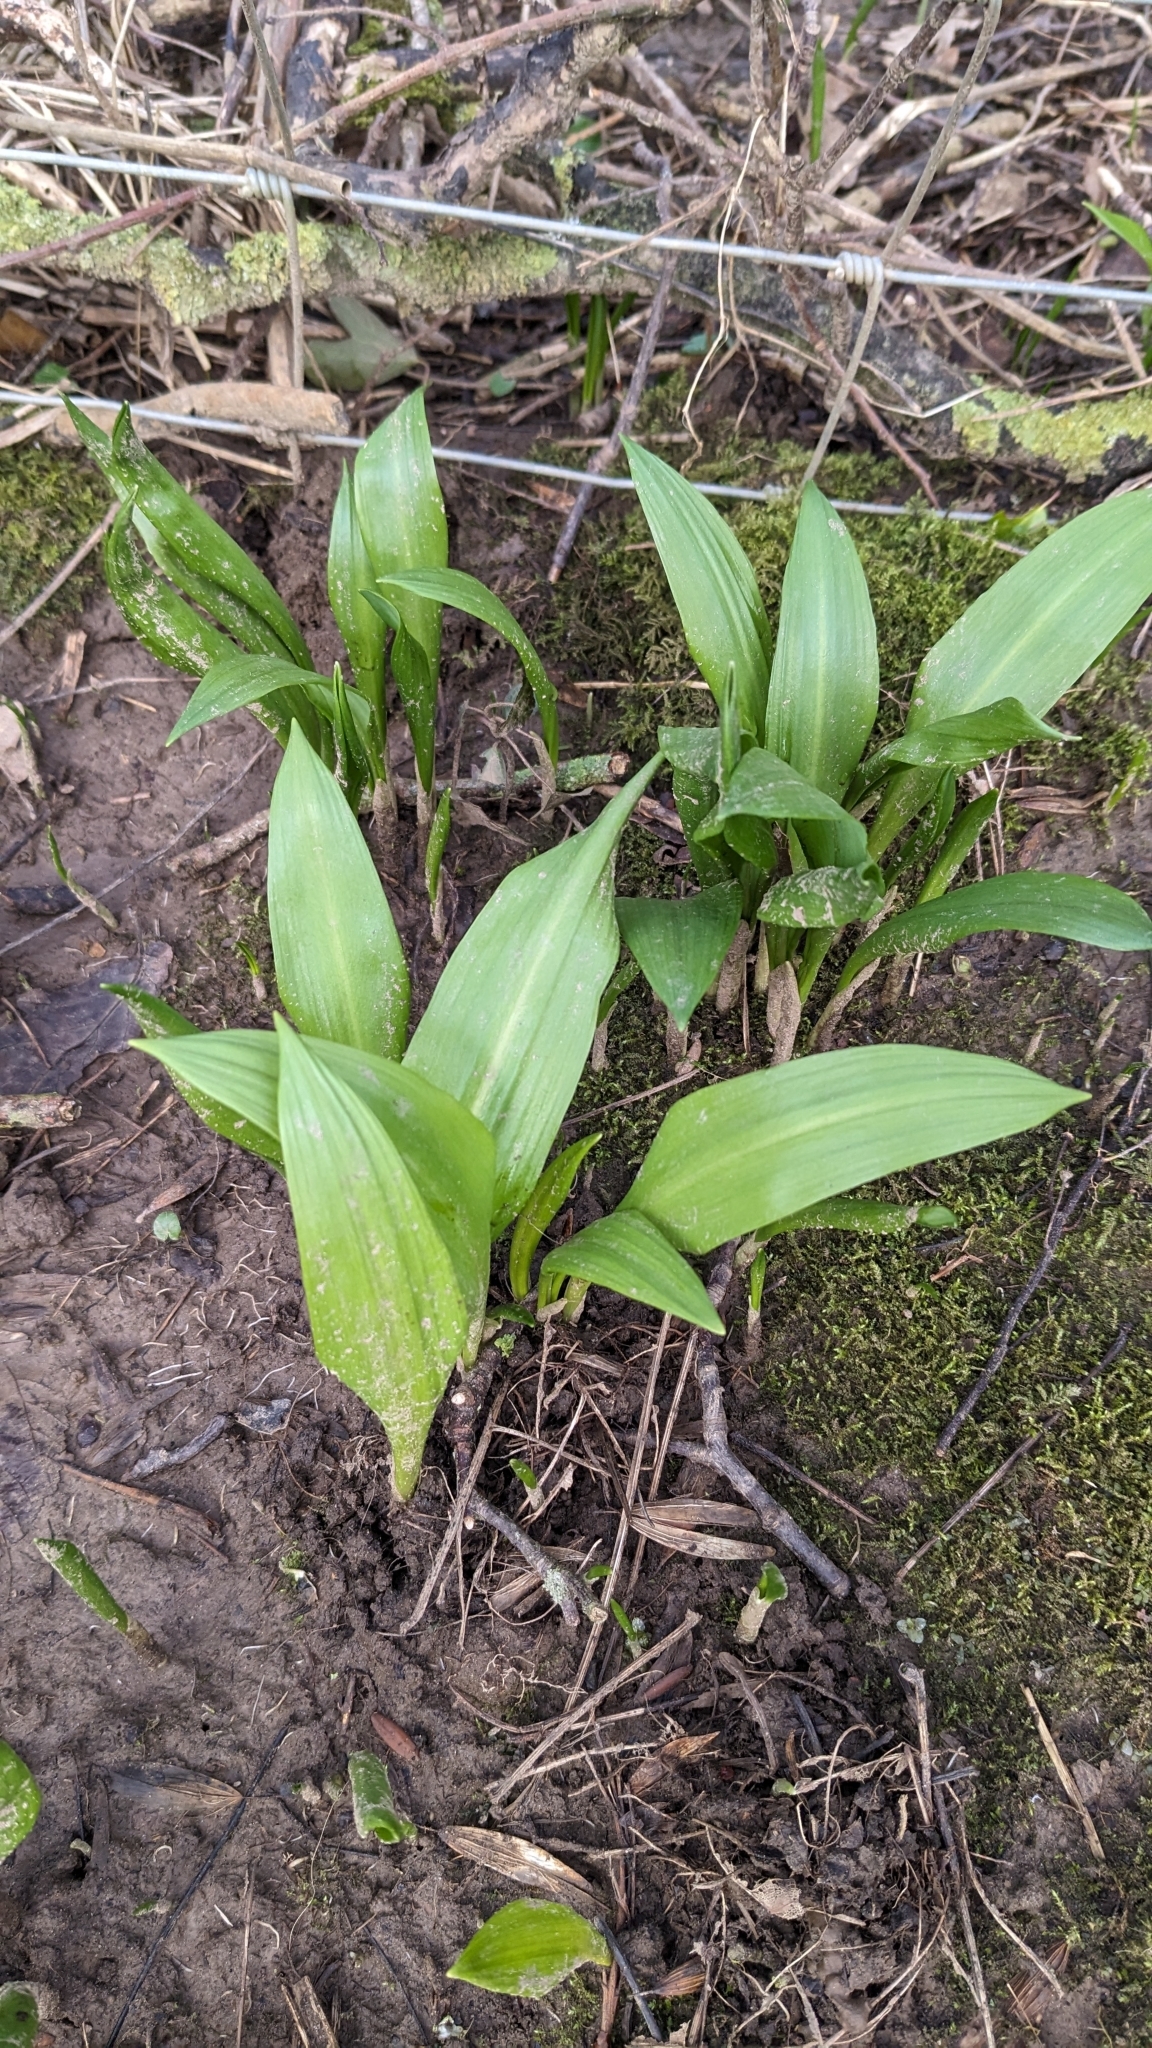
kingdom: Plantae
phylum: Tracheophyta
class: Liliopsida
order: Asparagales
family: Amaryllidaceae
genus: Allium
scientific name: Allium ursinum
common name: Ramsons
